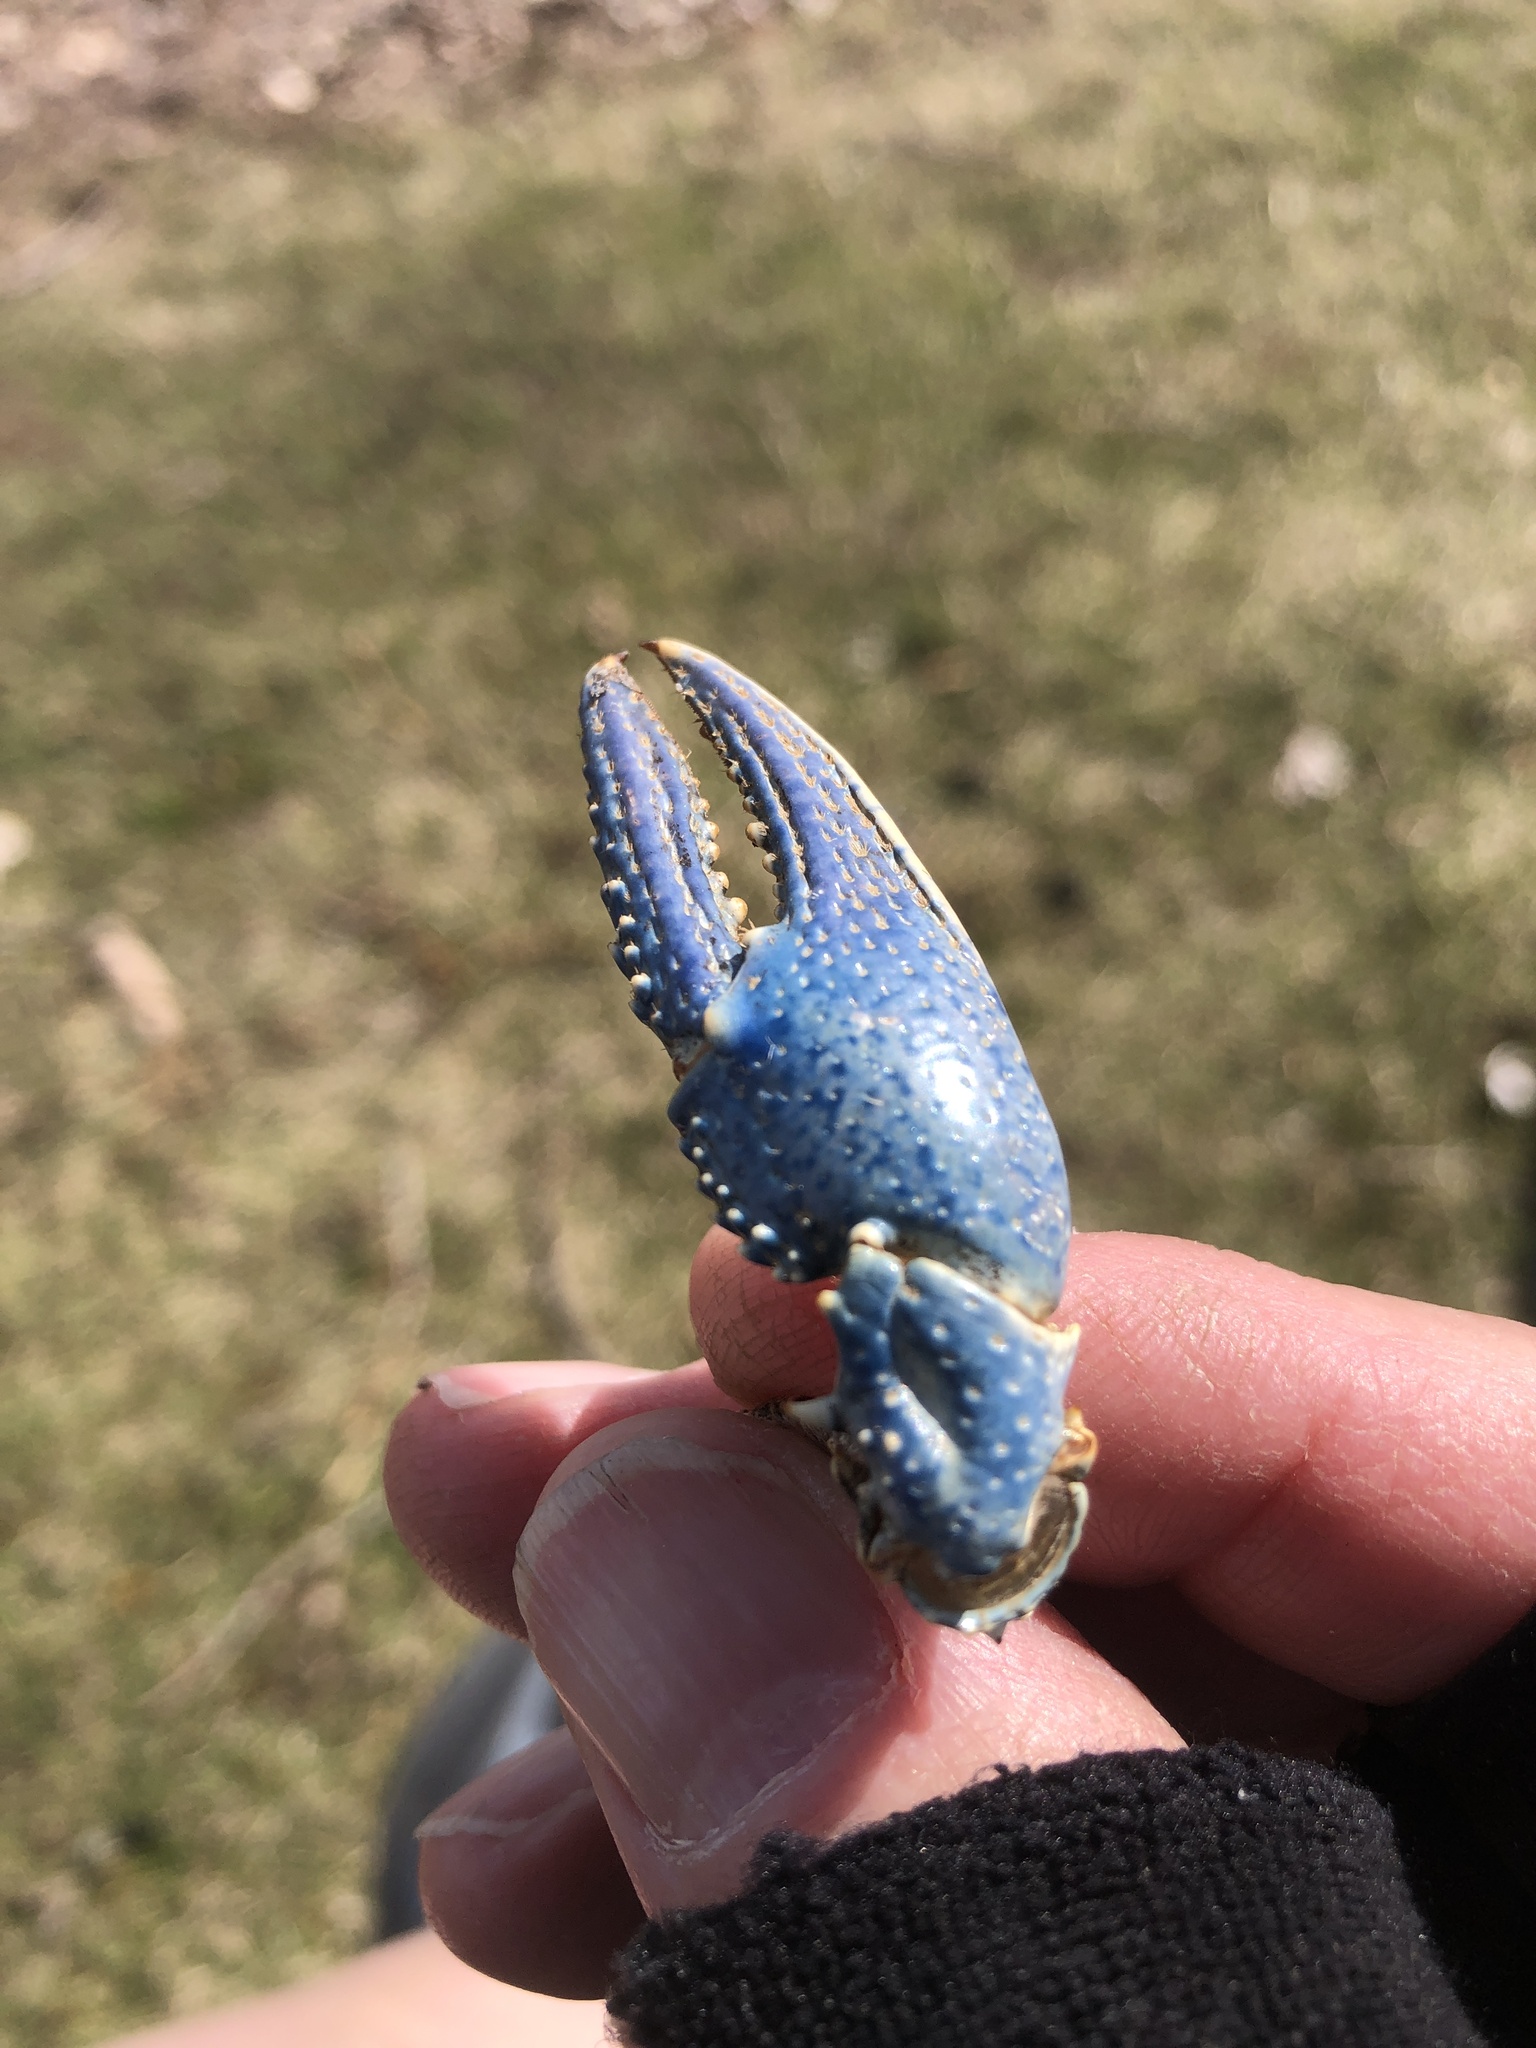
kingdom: Animalia
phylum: Arthropoda
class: Malacostraca
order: Decapoda
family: Cambaridae
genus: Faxonius
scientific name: Faxonius virilis
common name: Virile crayfish
